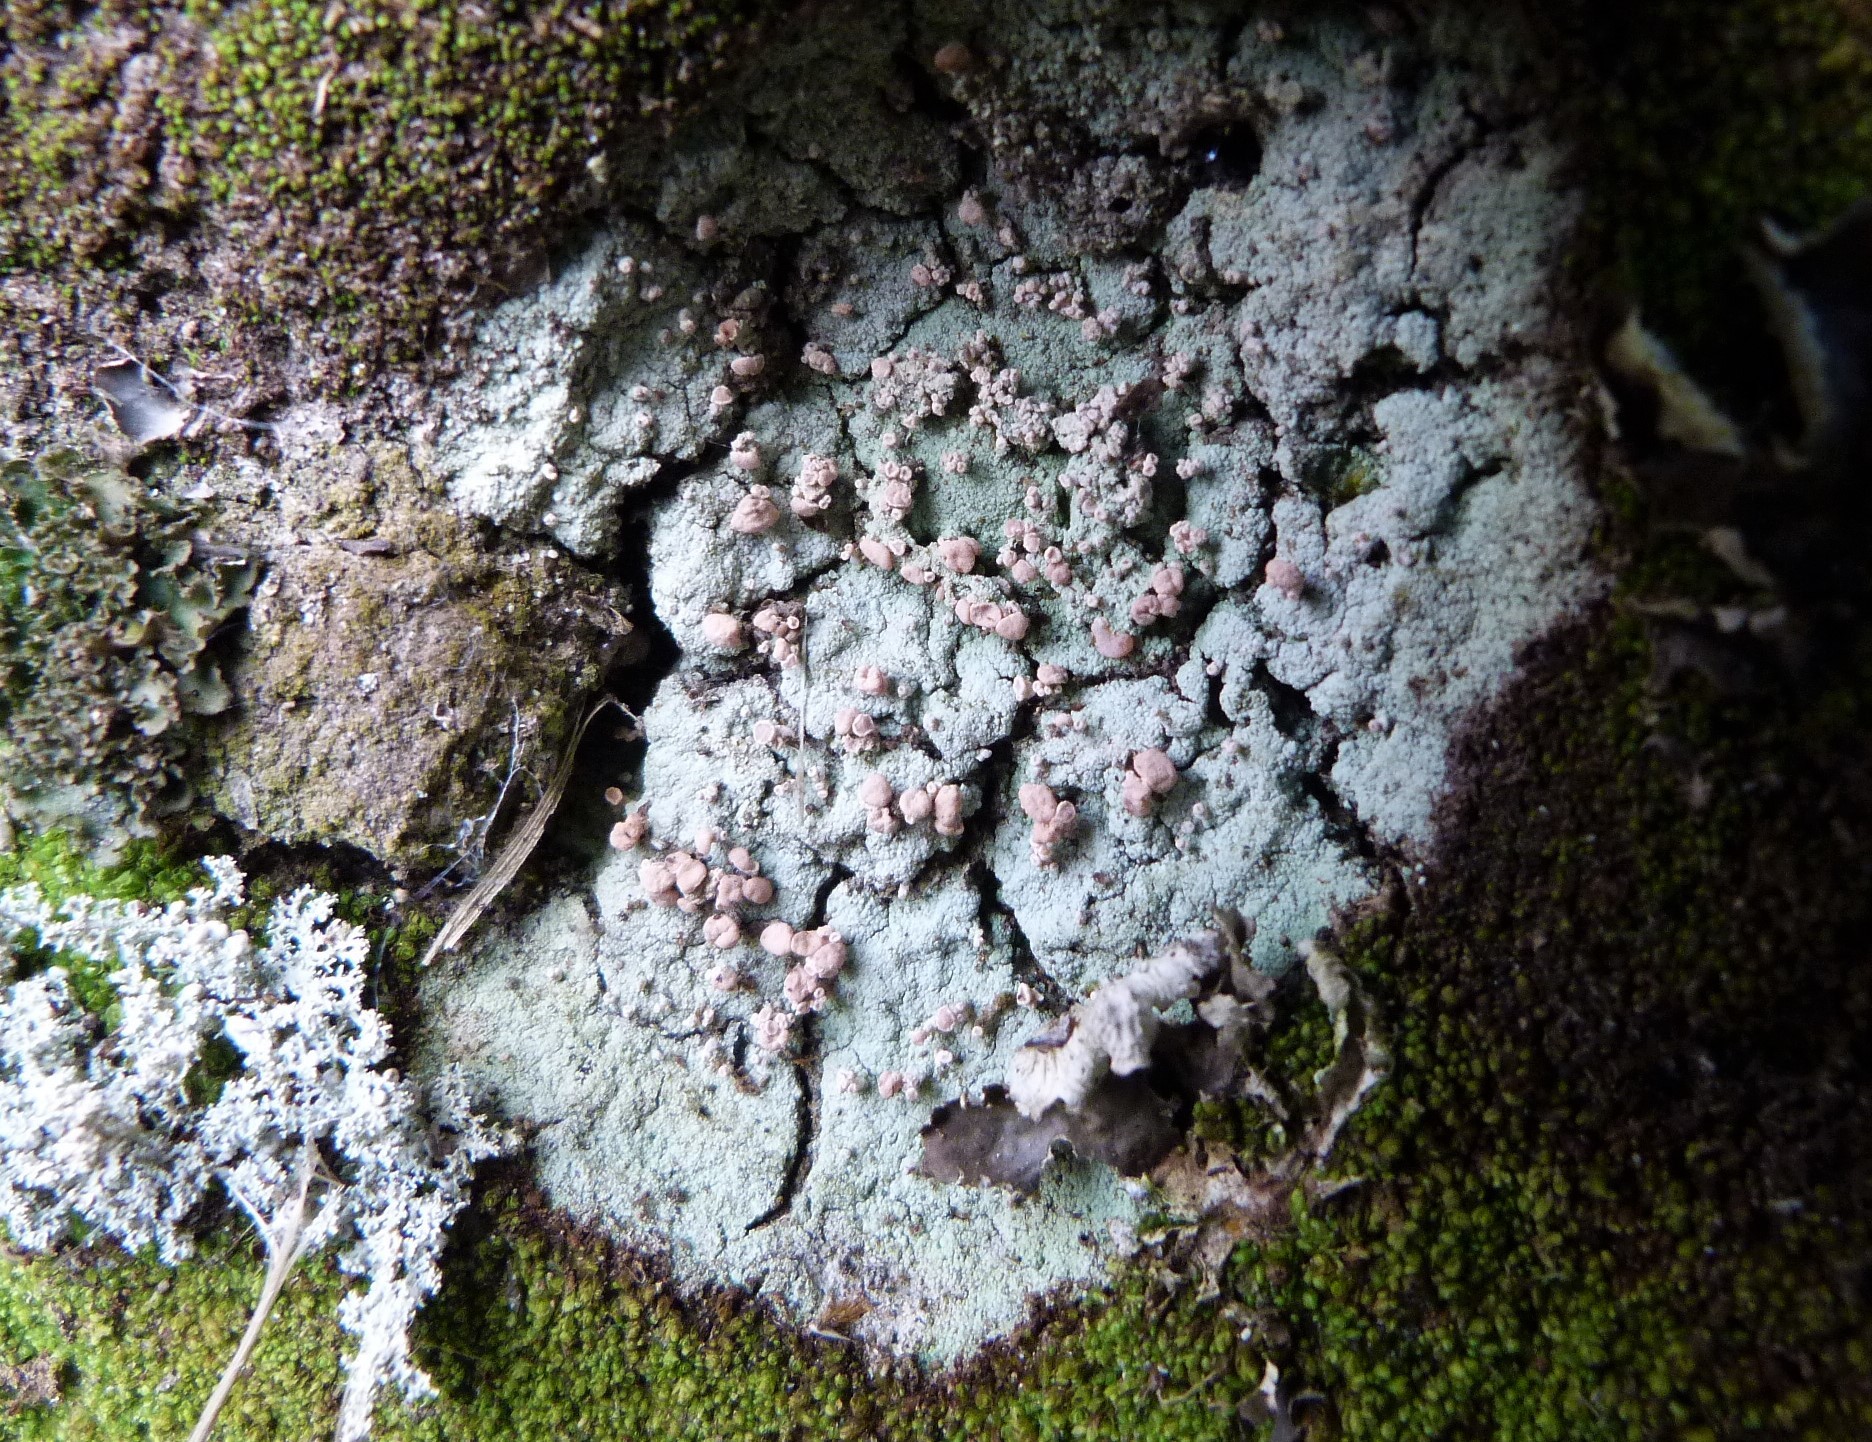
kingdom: Fungi
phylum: Ascomycota
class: Lecanoromycetes
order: Baeomycetales
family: Baeomycetaceae
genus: Baeomyces
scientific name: Baeomyces heteromorphus
